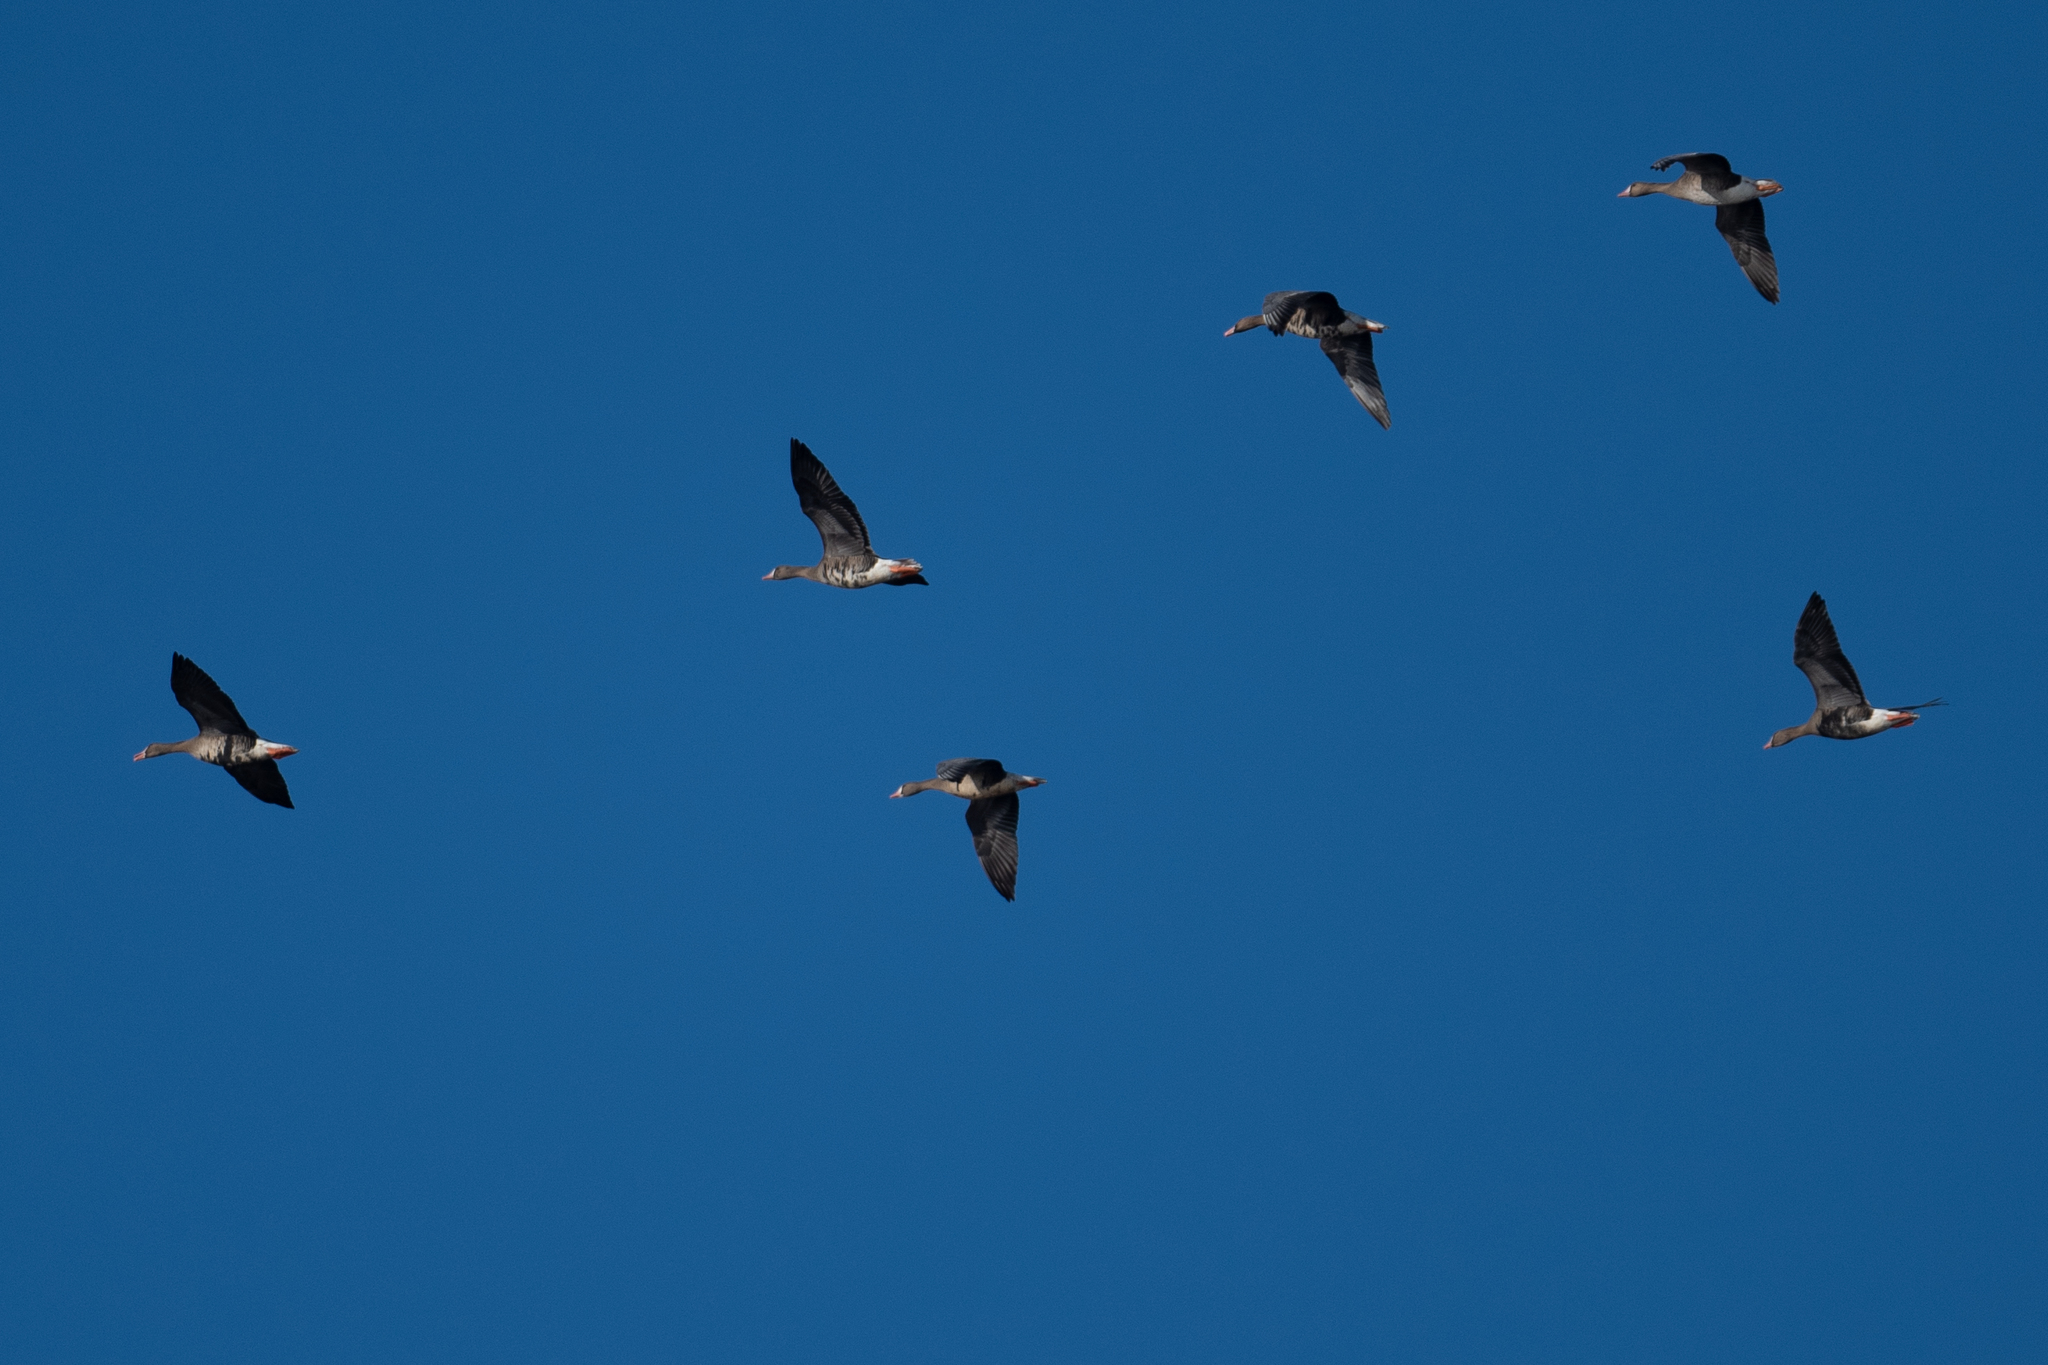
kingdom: Animalia
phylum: Chordata
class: Aves
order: Anseriformes
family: Anatidae
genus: Anser
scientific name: Anser albifrons
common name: Greater white-fronted goose
